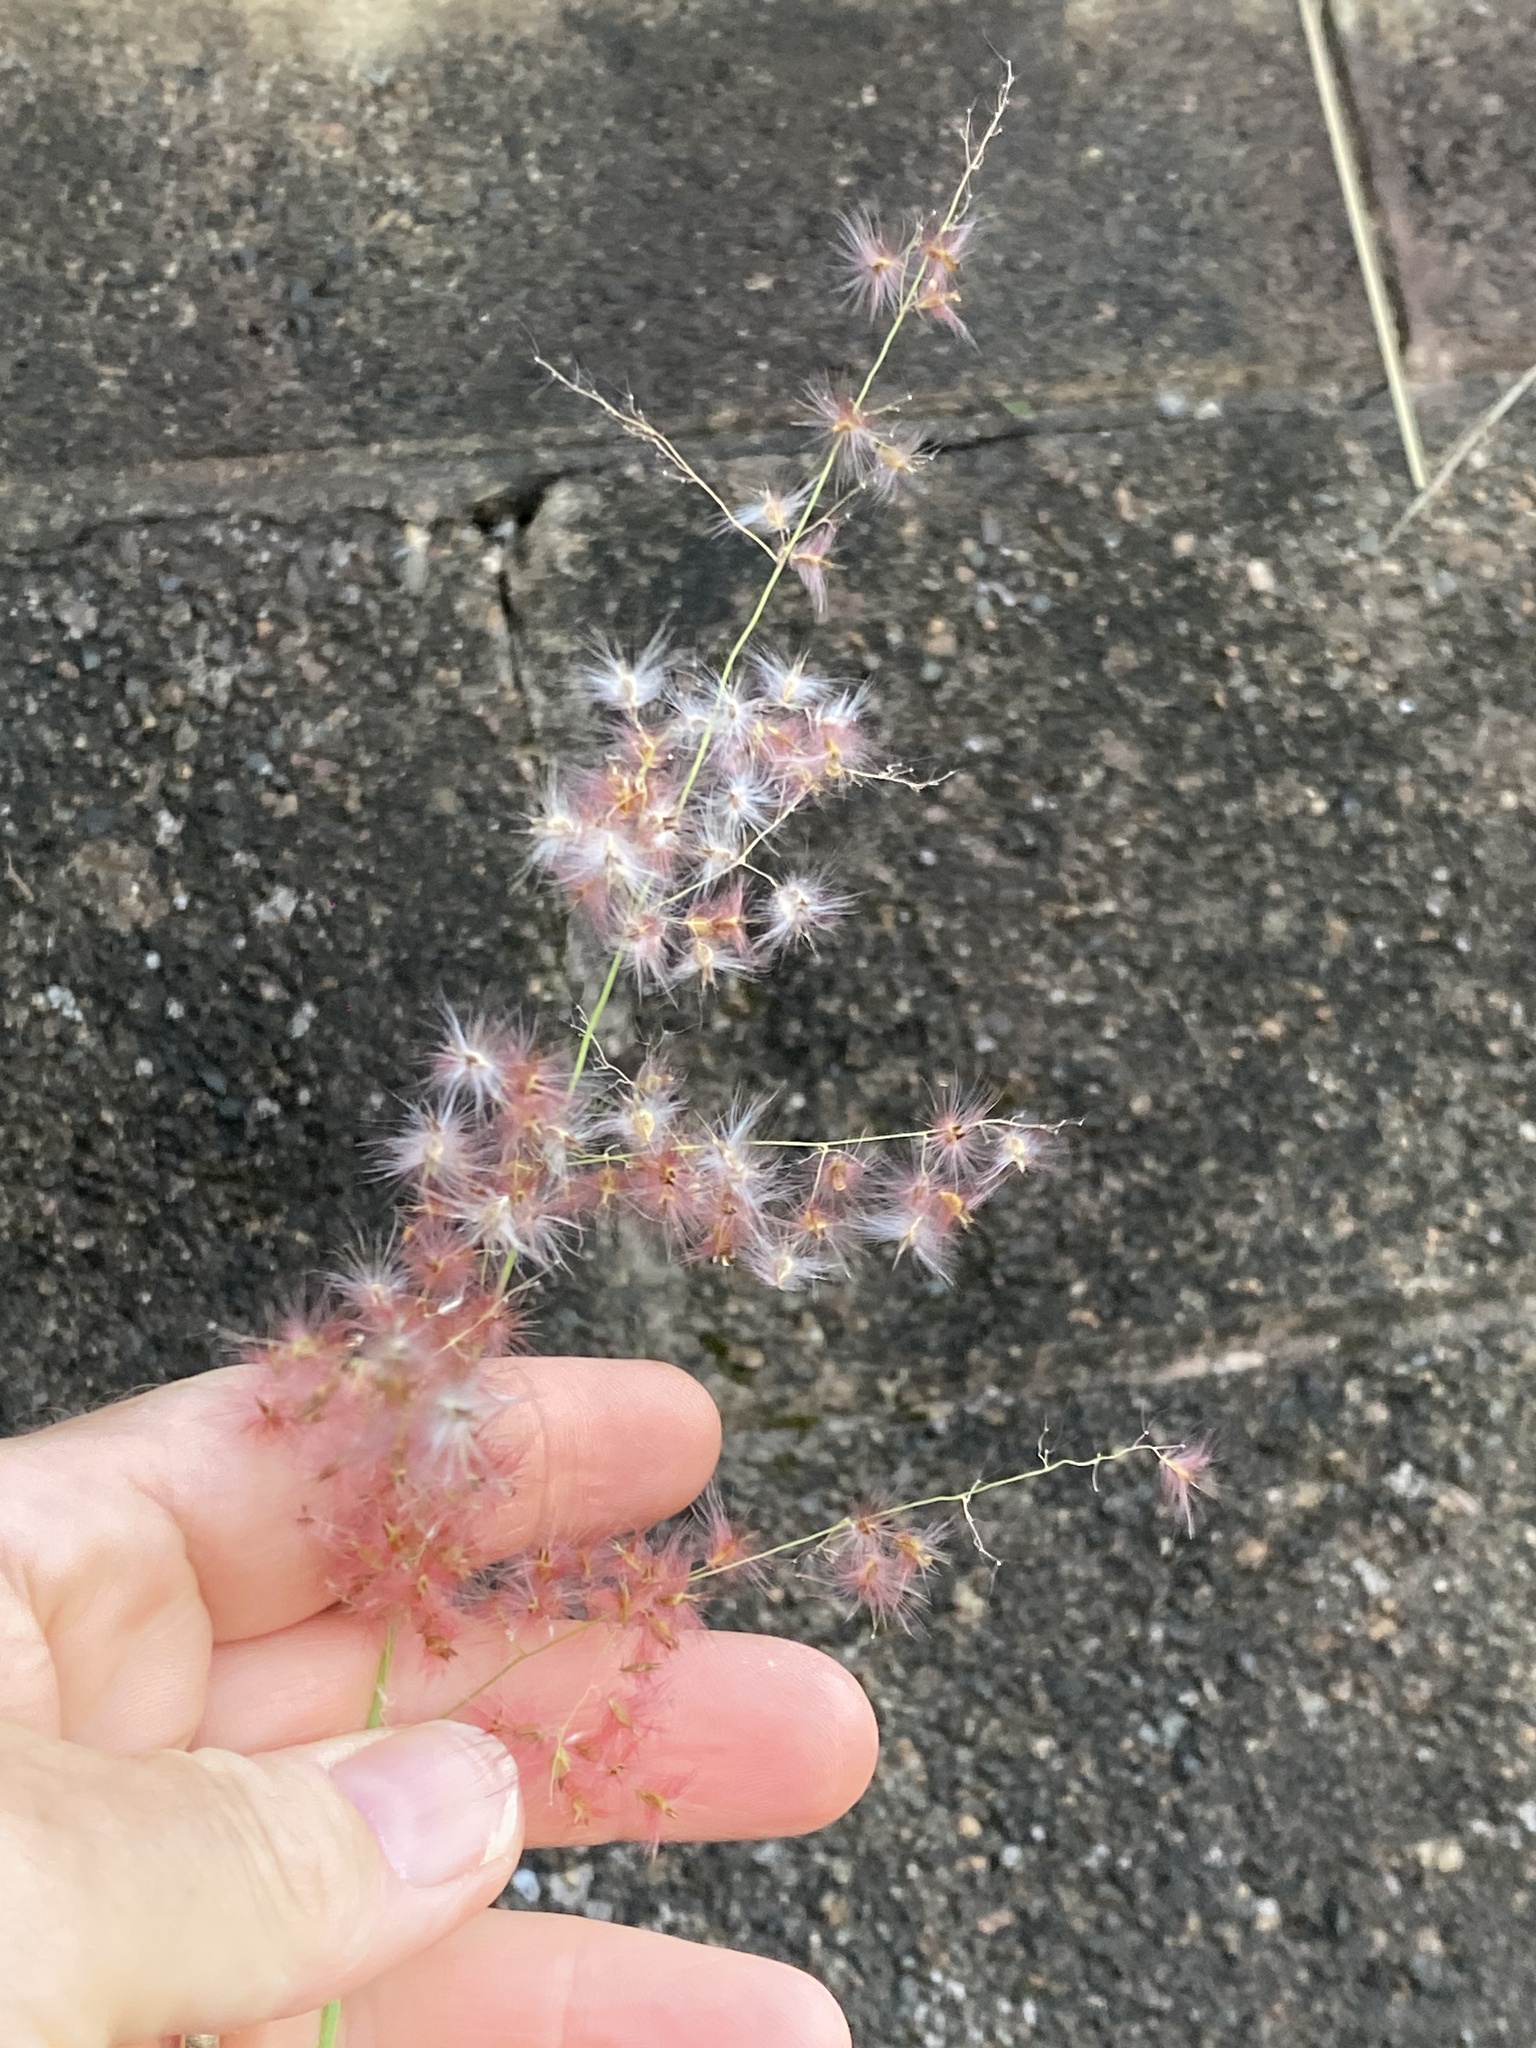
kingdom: Plantae
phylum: Tracheophyta
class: Liliopsida
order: Poales
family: Poaceae
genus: Melinis
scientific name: Melinis repens
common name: Rose natal grass
